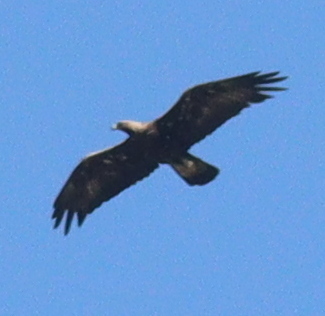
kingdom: Animalia
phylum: Chordata
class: Aves
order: Accipitriformes
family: Accipitridae
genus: Aquila
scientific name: Aquila chrysaetos
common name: Golden eagle
